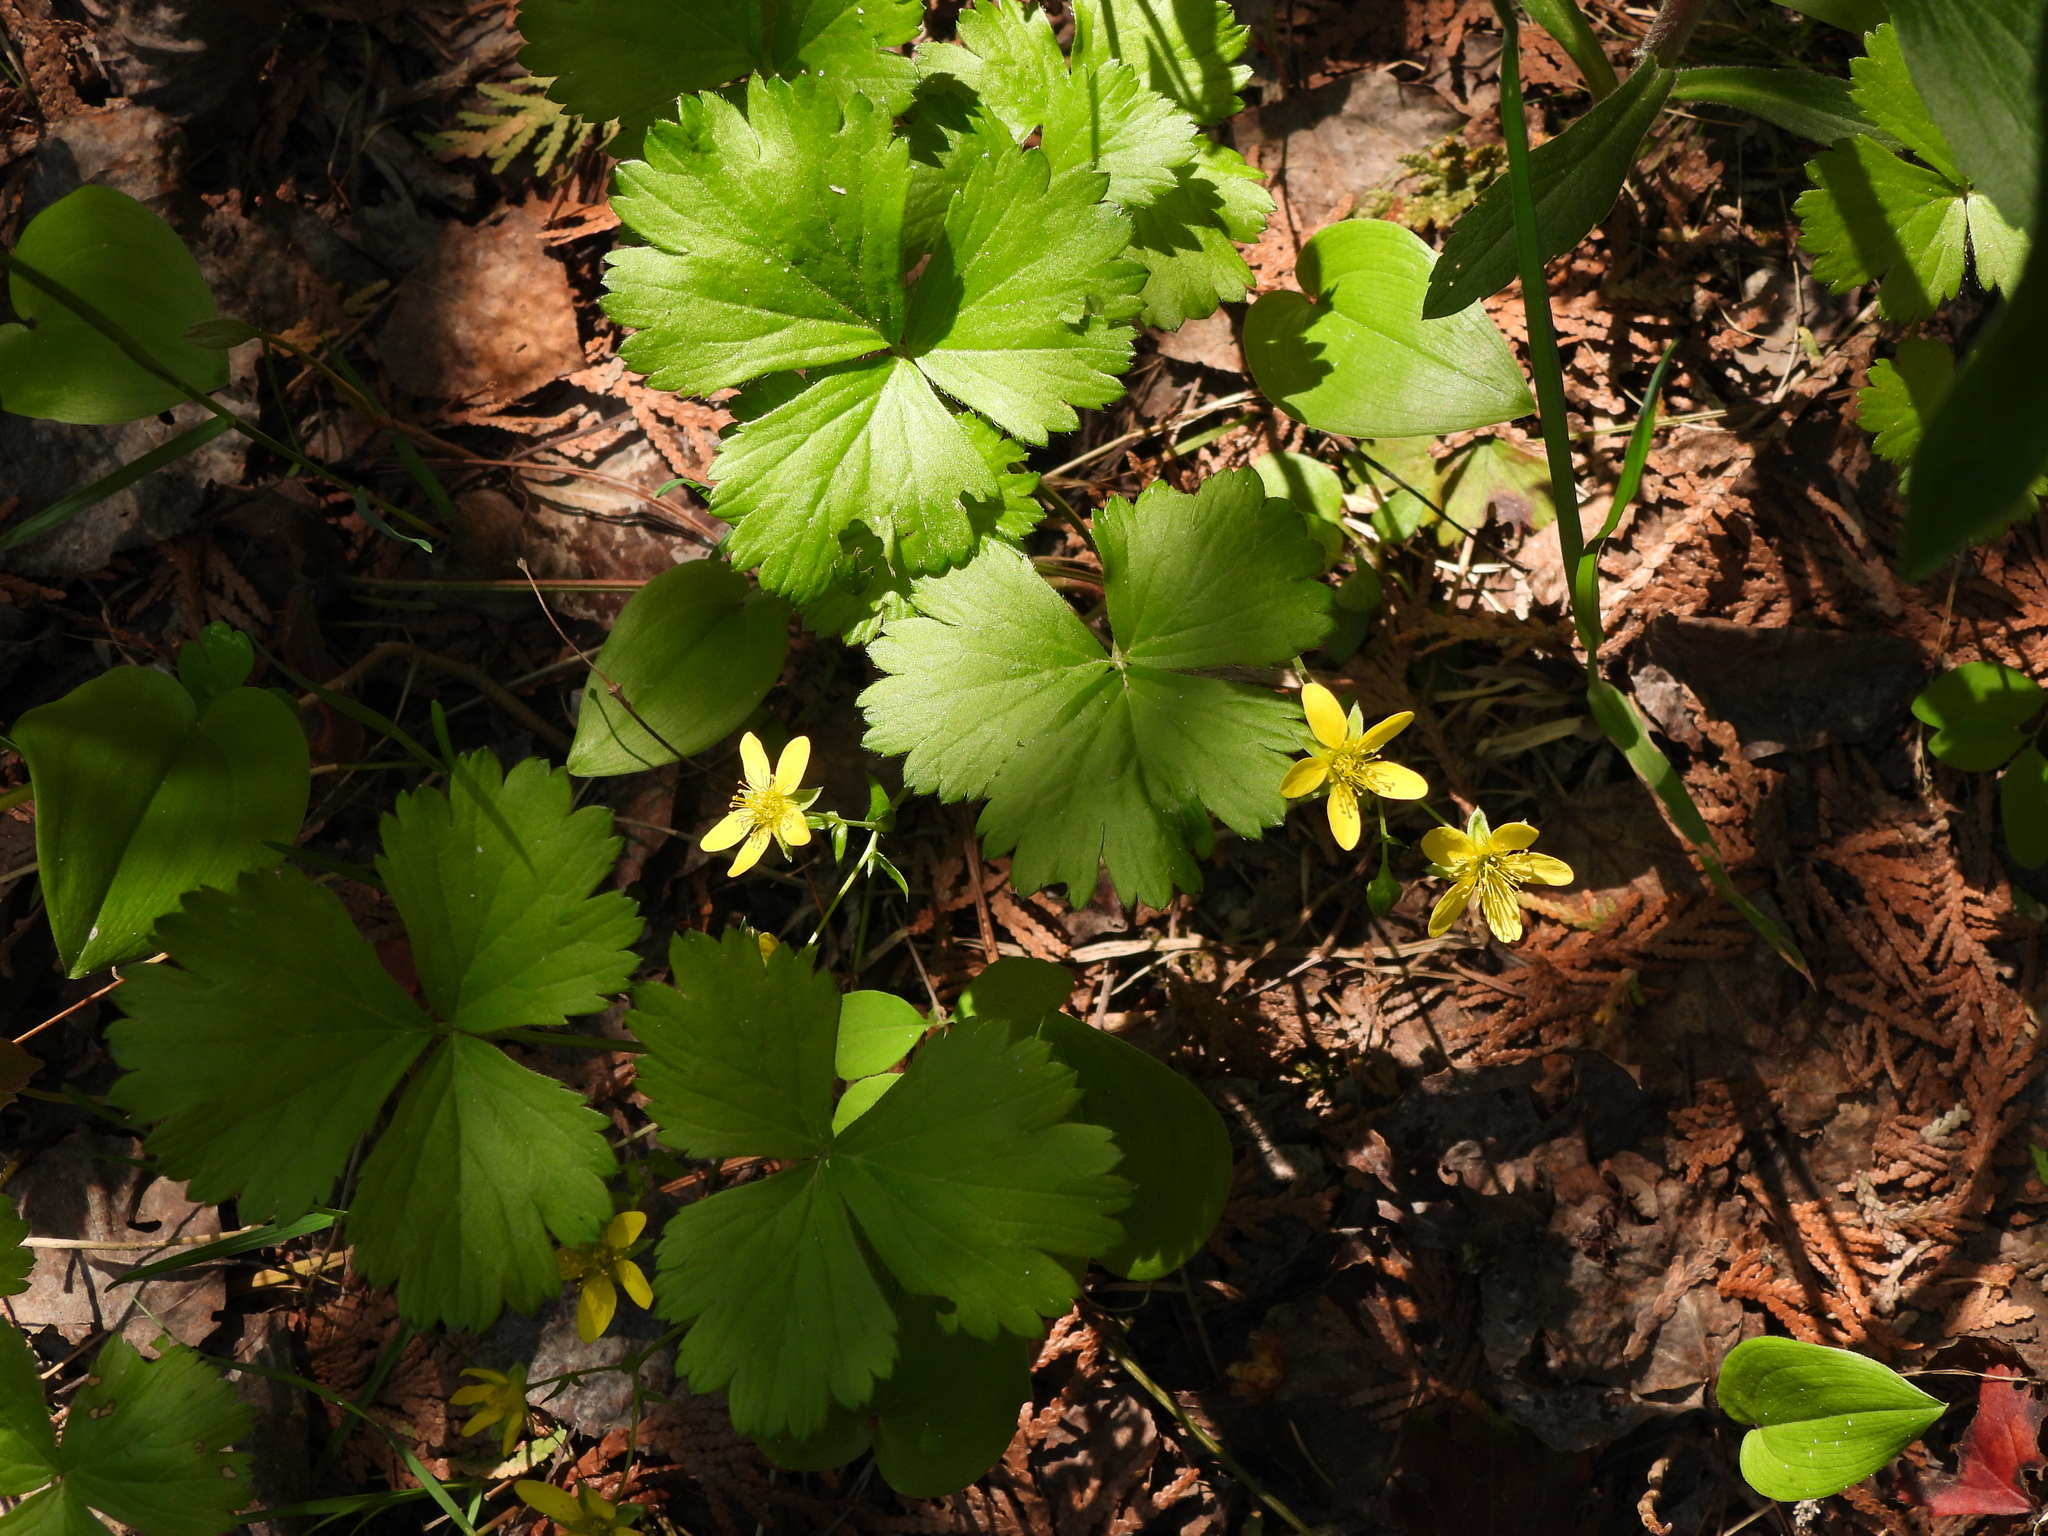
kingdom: Plantae
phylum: Tracheophyta
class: Magnoliopsida
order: Rosales
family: Rosaceae
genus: Geum
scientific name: Geum fragarioides
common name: Appalachian barren strawberry
